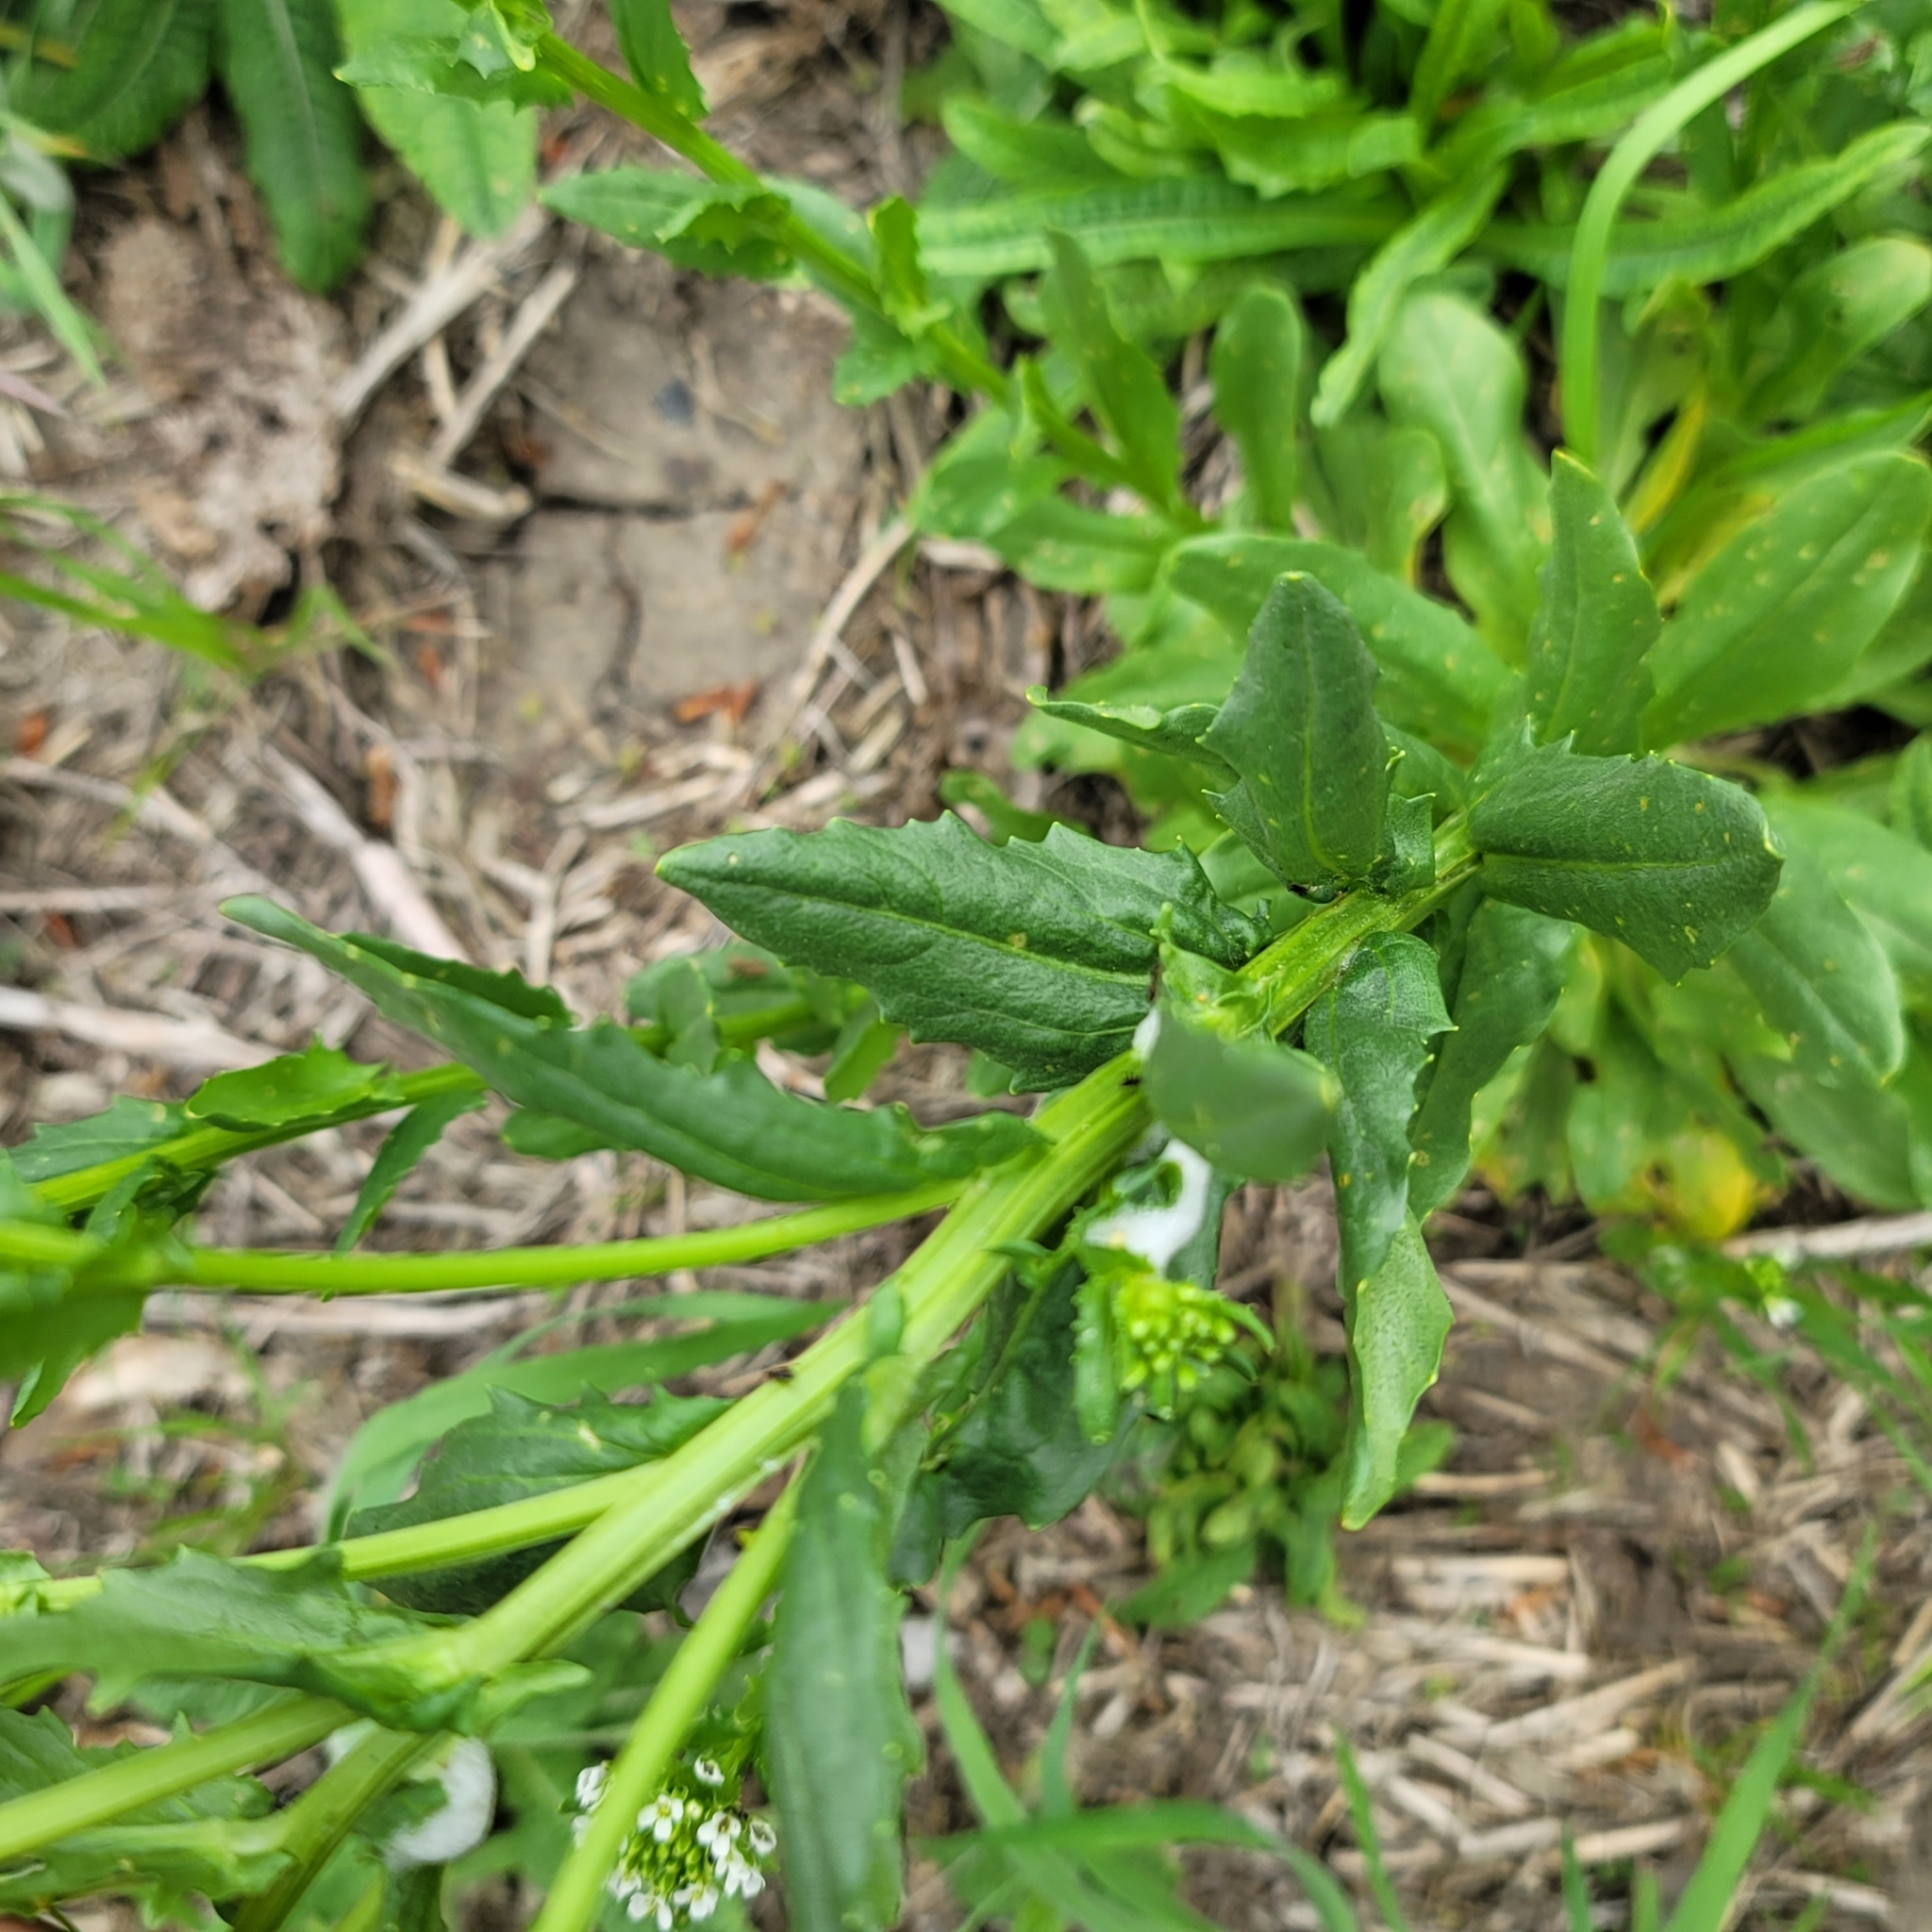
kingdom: Plantae
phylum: Tracheophyta
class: Magnoliopsida
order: Brassicales
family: Brassicaceae
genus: Thlaspi
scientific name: Thlaspi arvense
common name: Field pennycress
